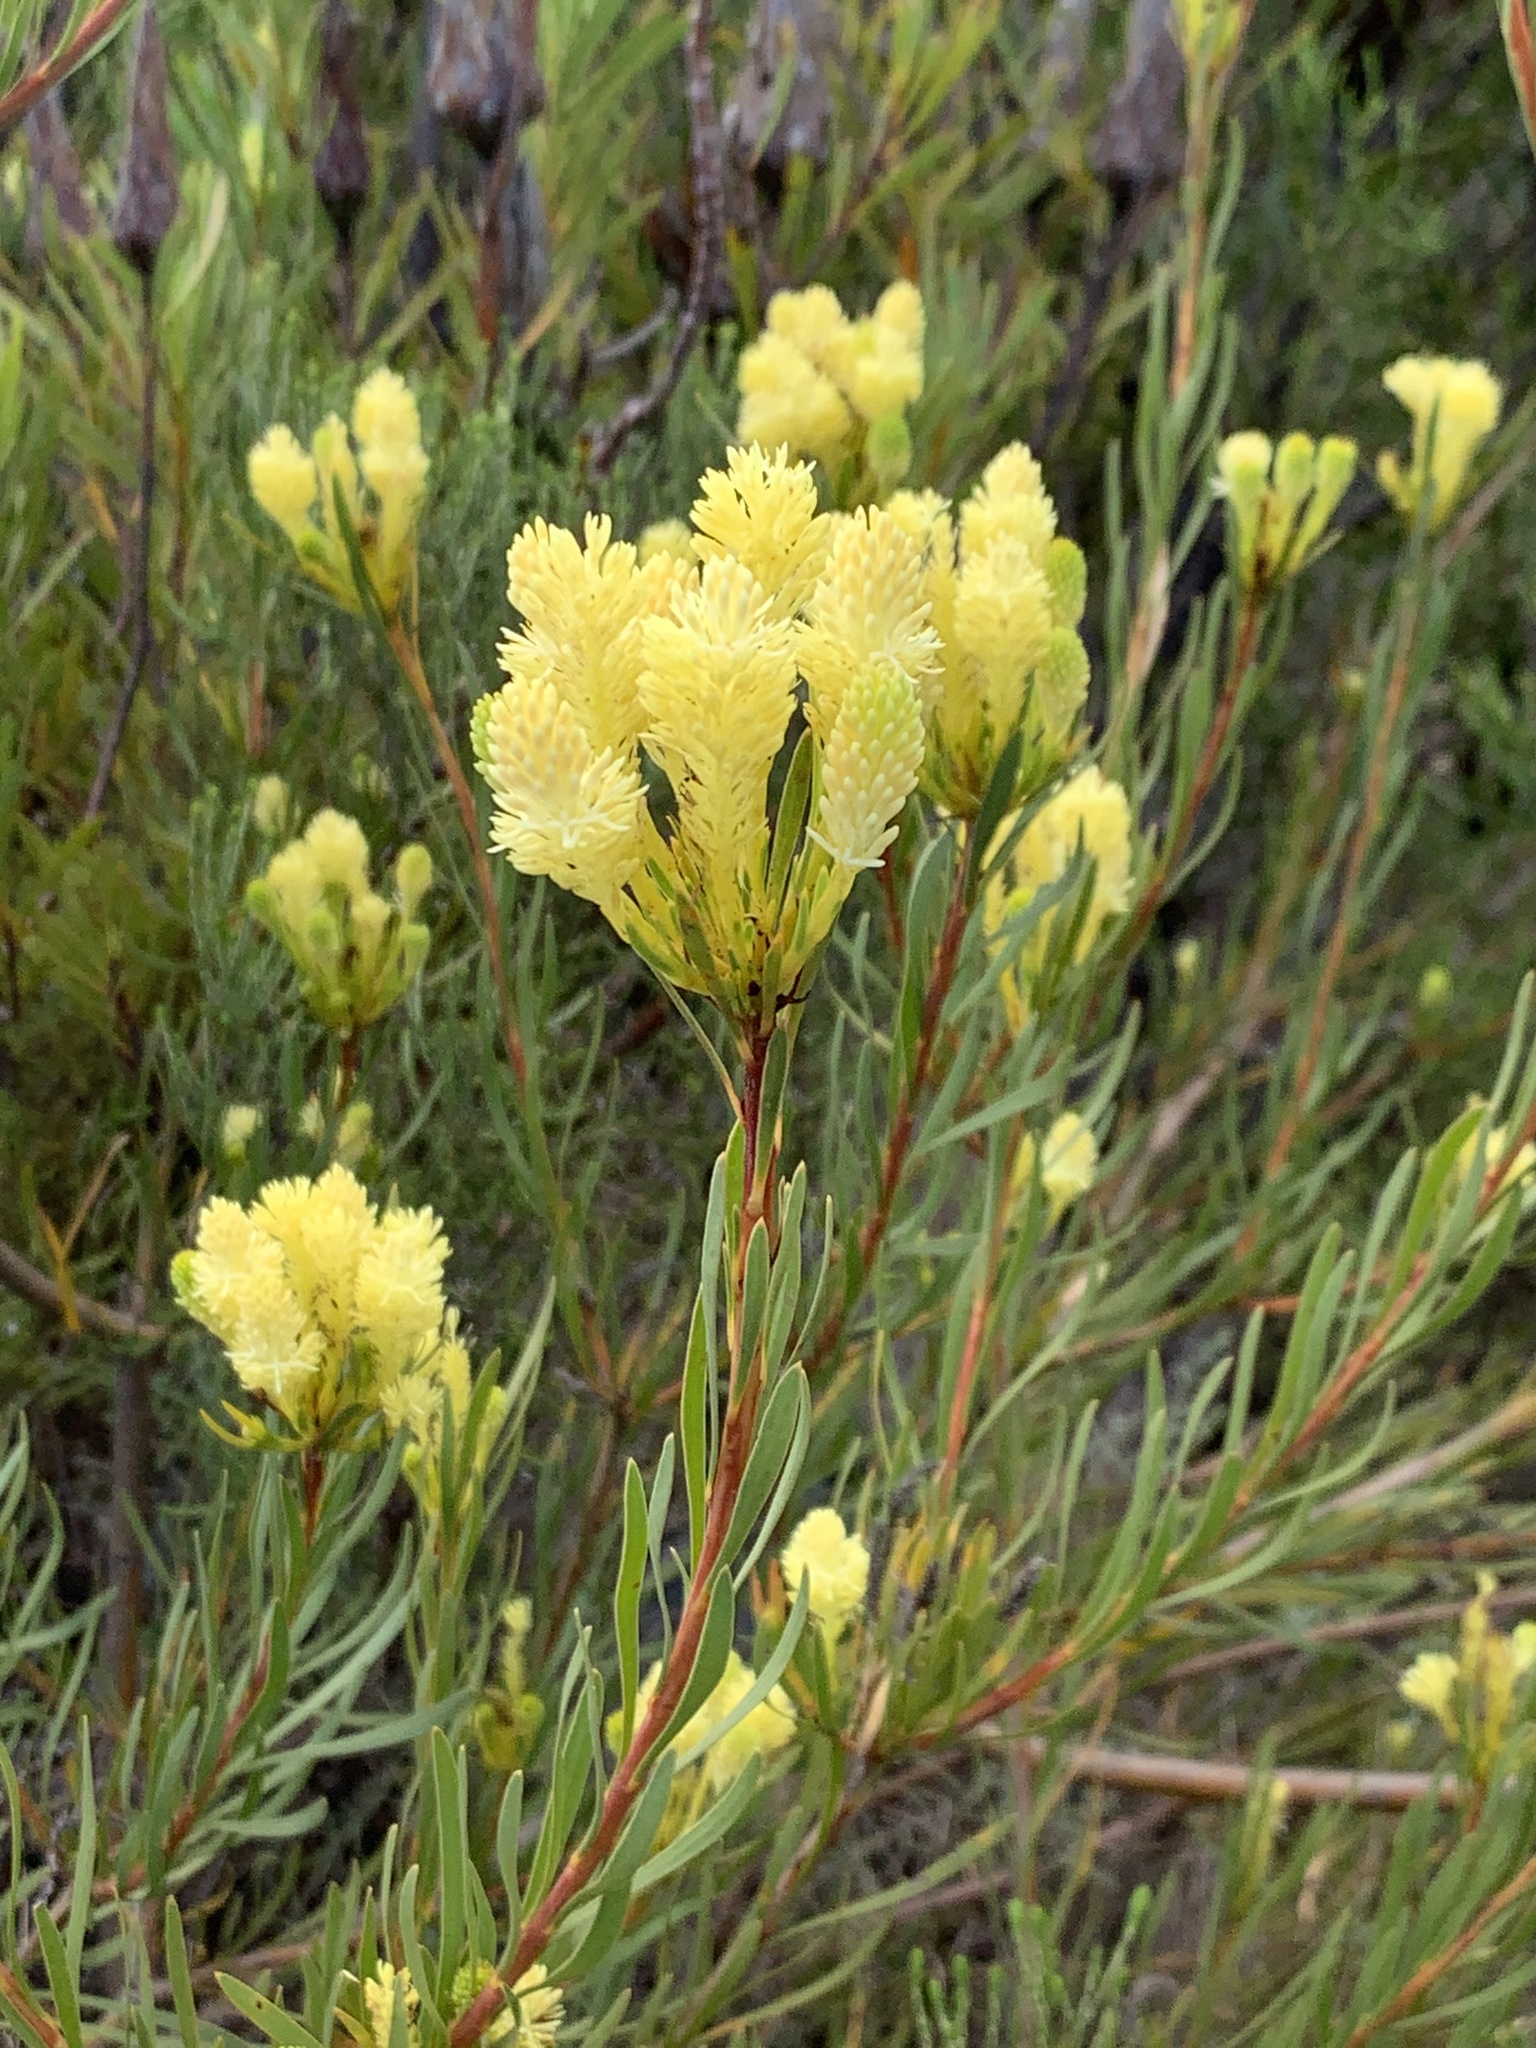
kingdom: Plantae
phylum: Tracheophyta
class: Magnoliopsida
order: Proteales
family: Proteaceae
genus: Aulax
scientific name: Aulax umbellata
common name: Broad-leaf featherbush
